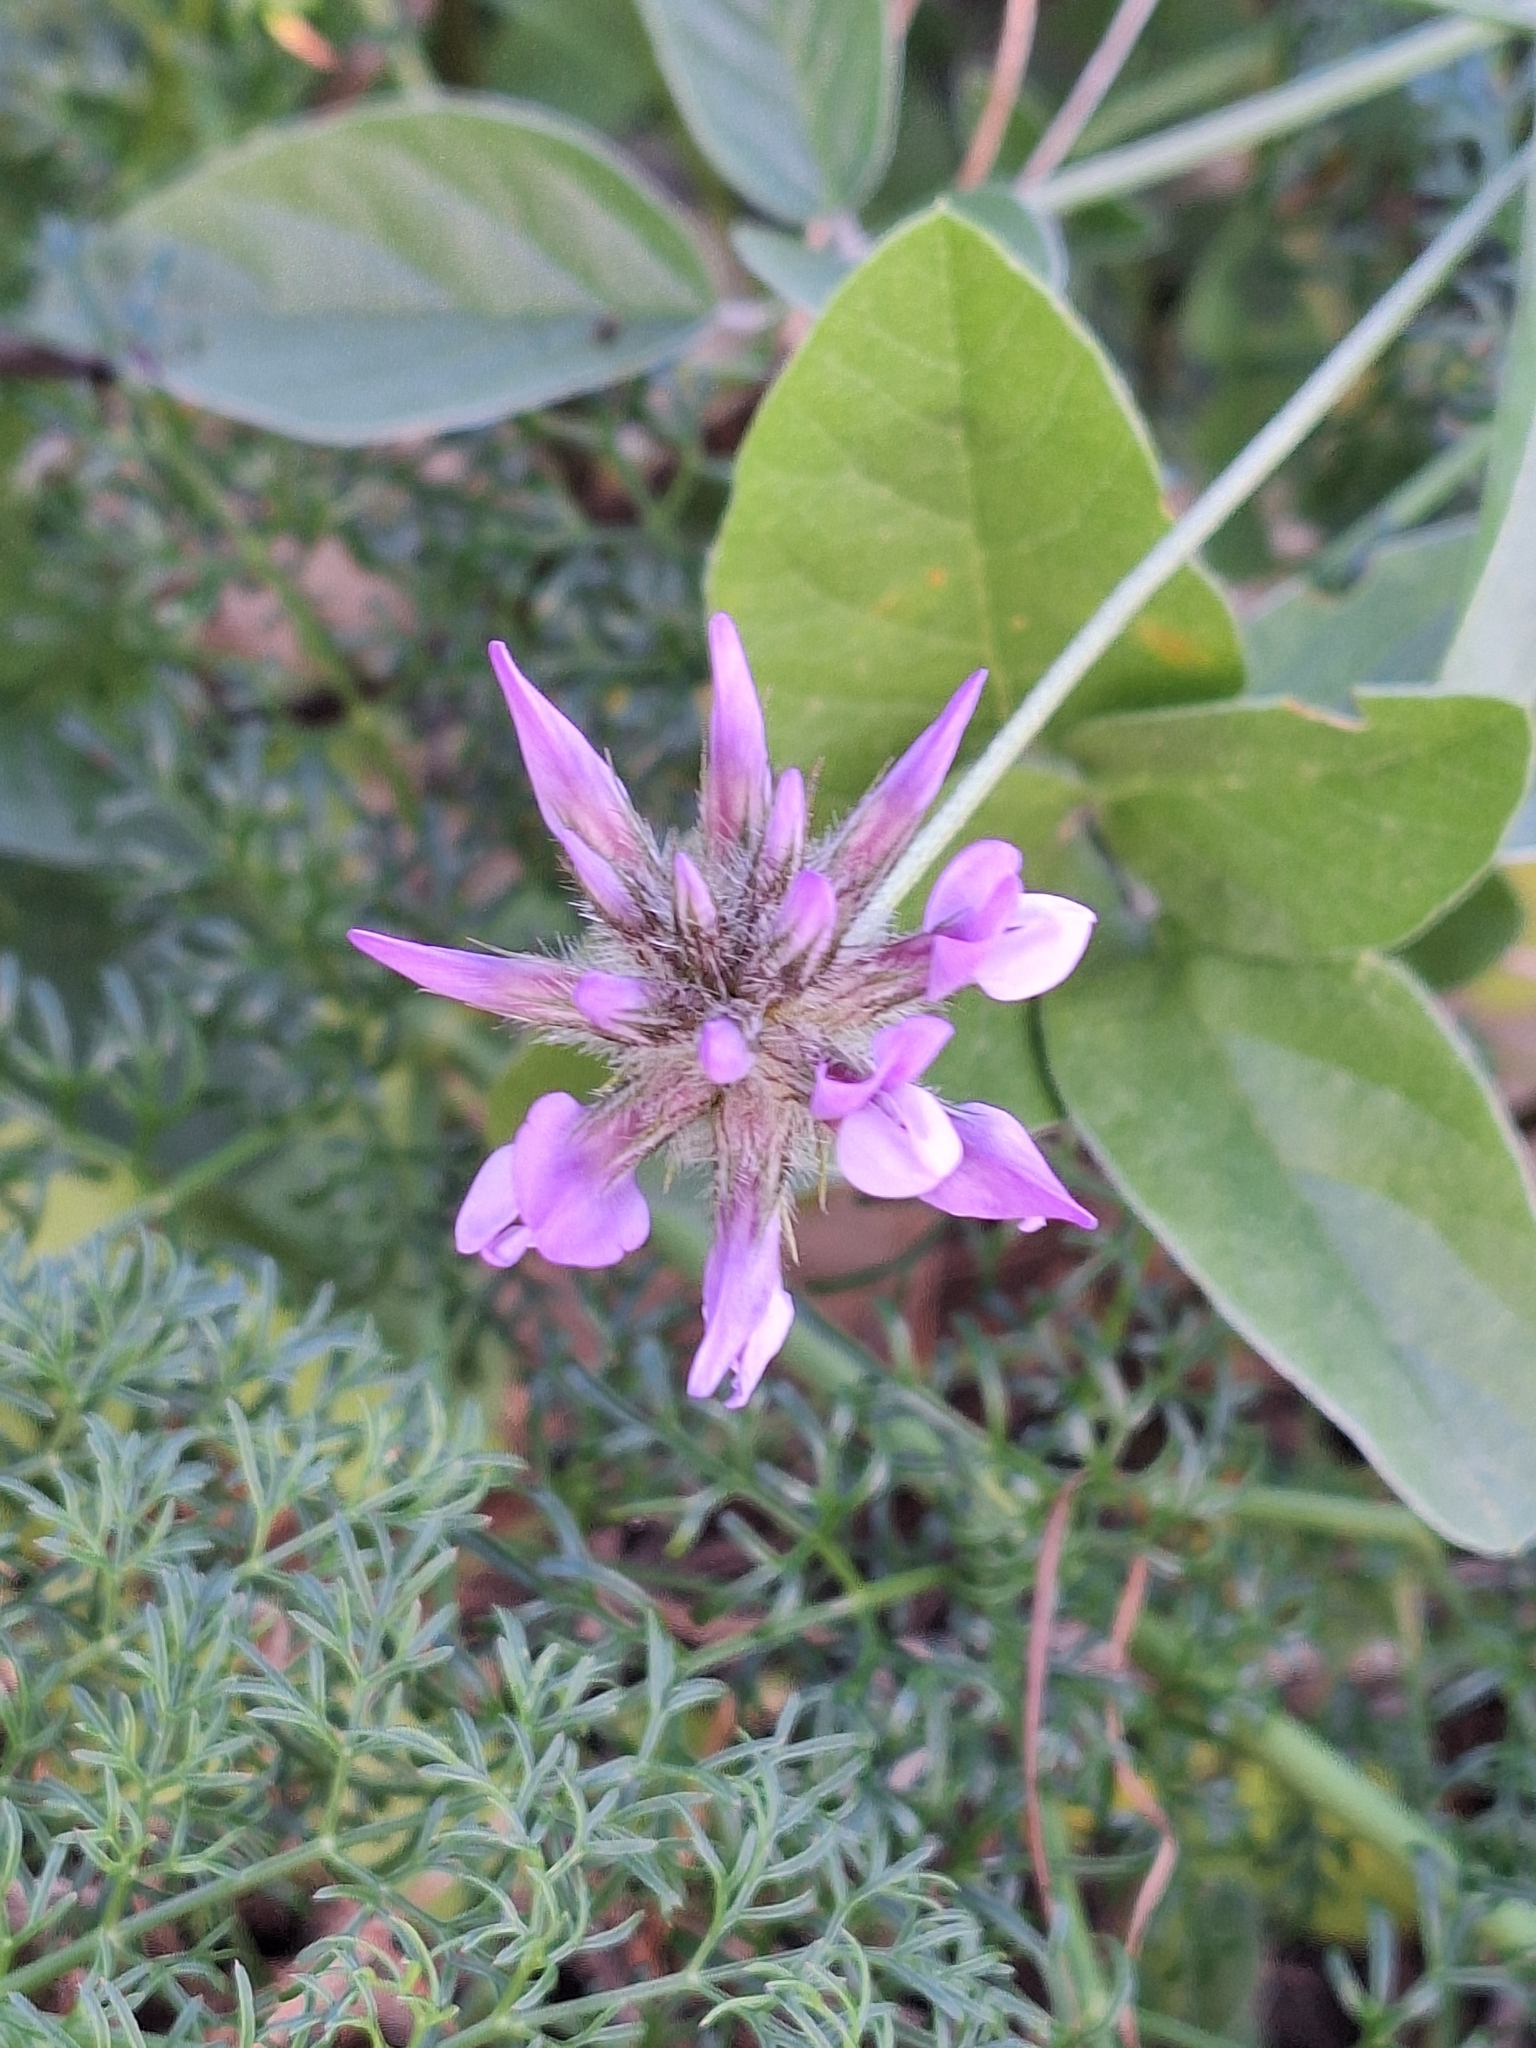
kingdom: Plantae
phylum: Tracheophyta
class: Magnoliopsida
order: Fabales
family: Fabaceae
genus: Bituminaria
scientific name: Bituminaria bituminosa
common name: Arabian pea
